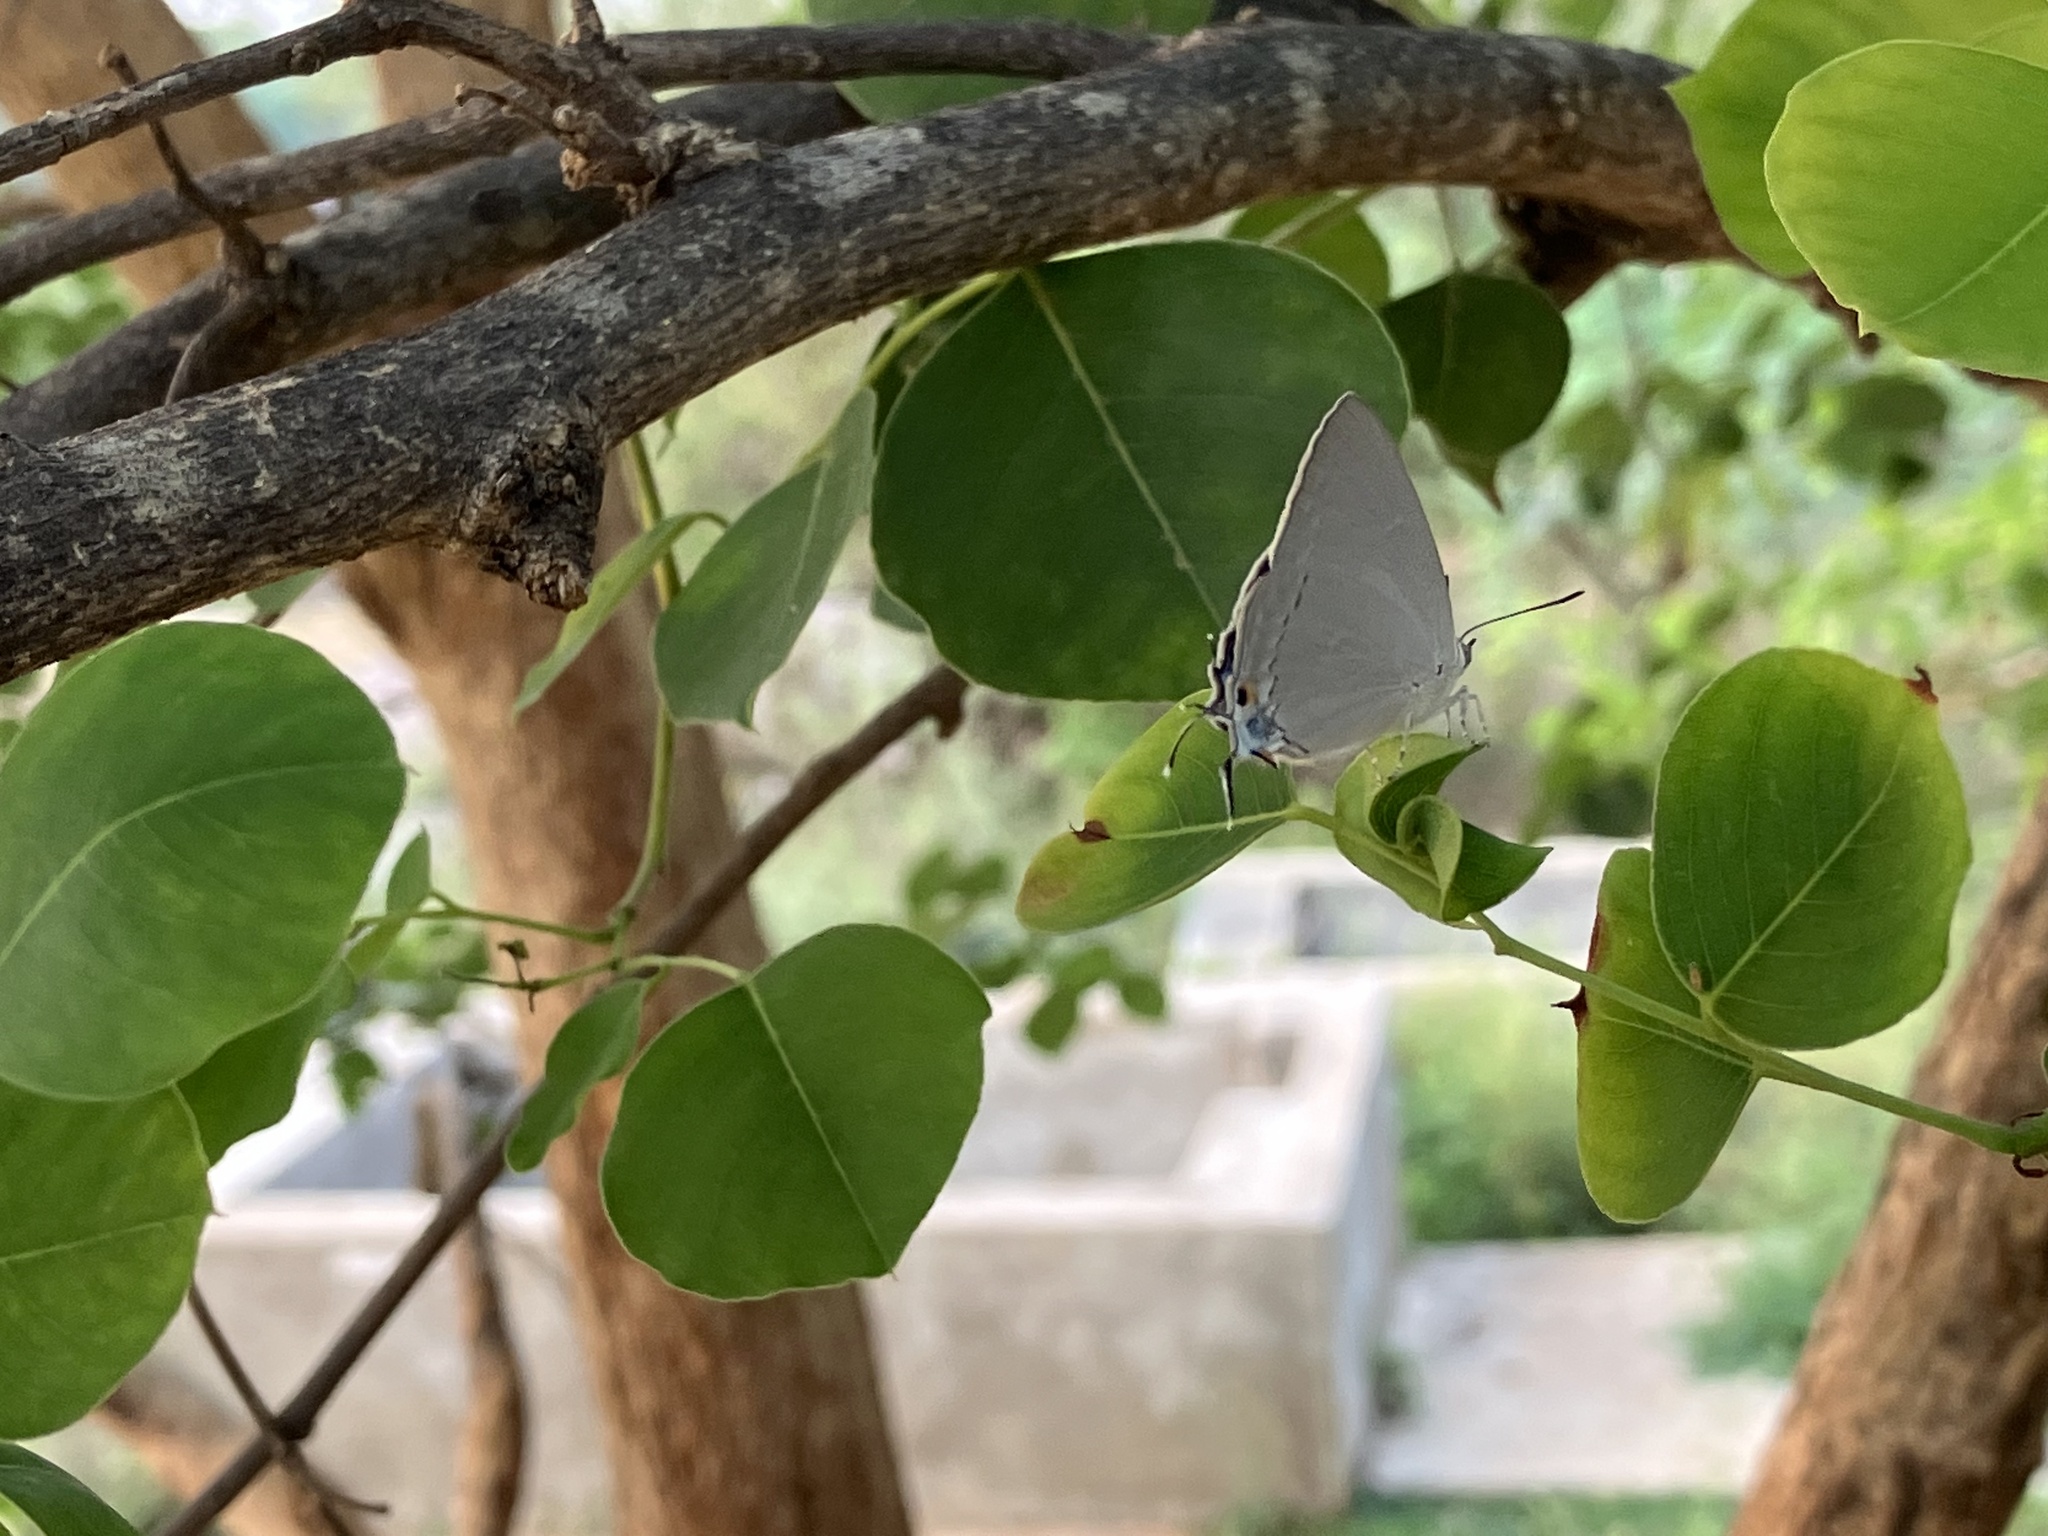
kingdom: Animalia
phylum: Arthropoda
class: Insecta
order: Lepidoptera
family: Lycaenidae
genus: Tajuria
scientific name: Tajuria jehana
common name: Plains blue royal
